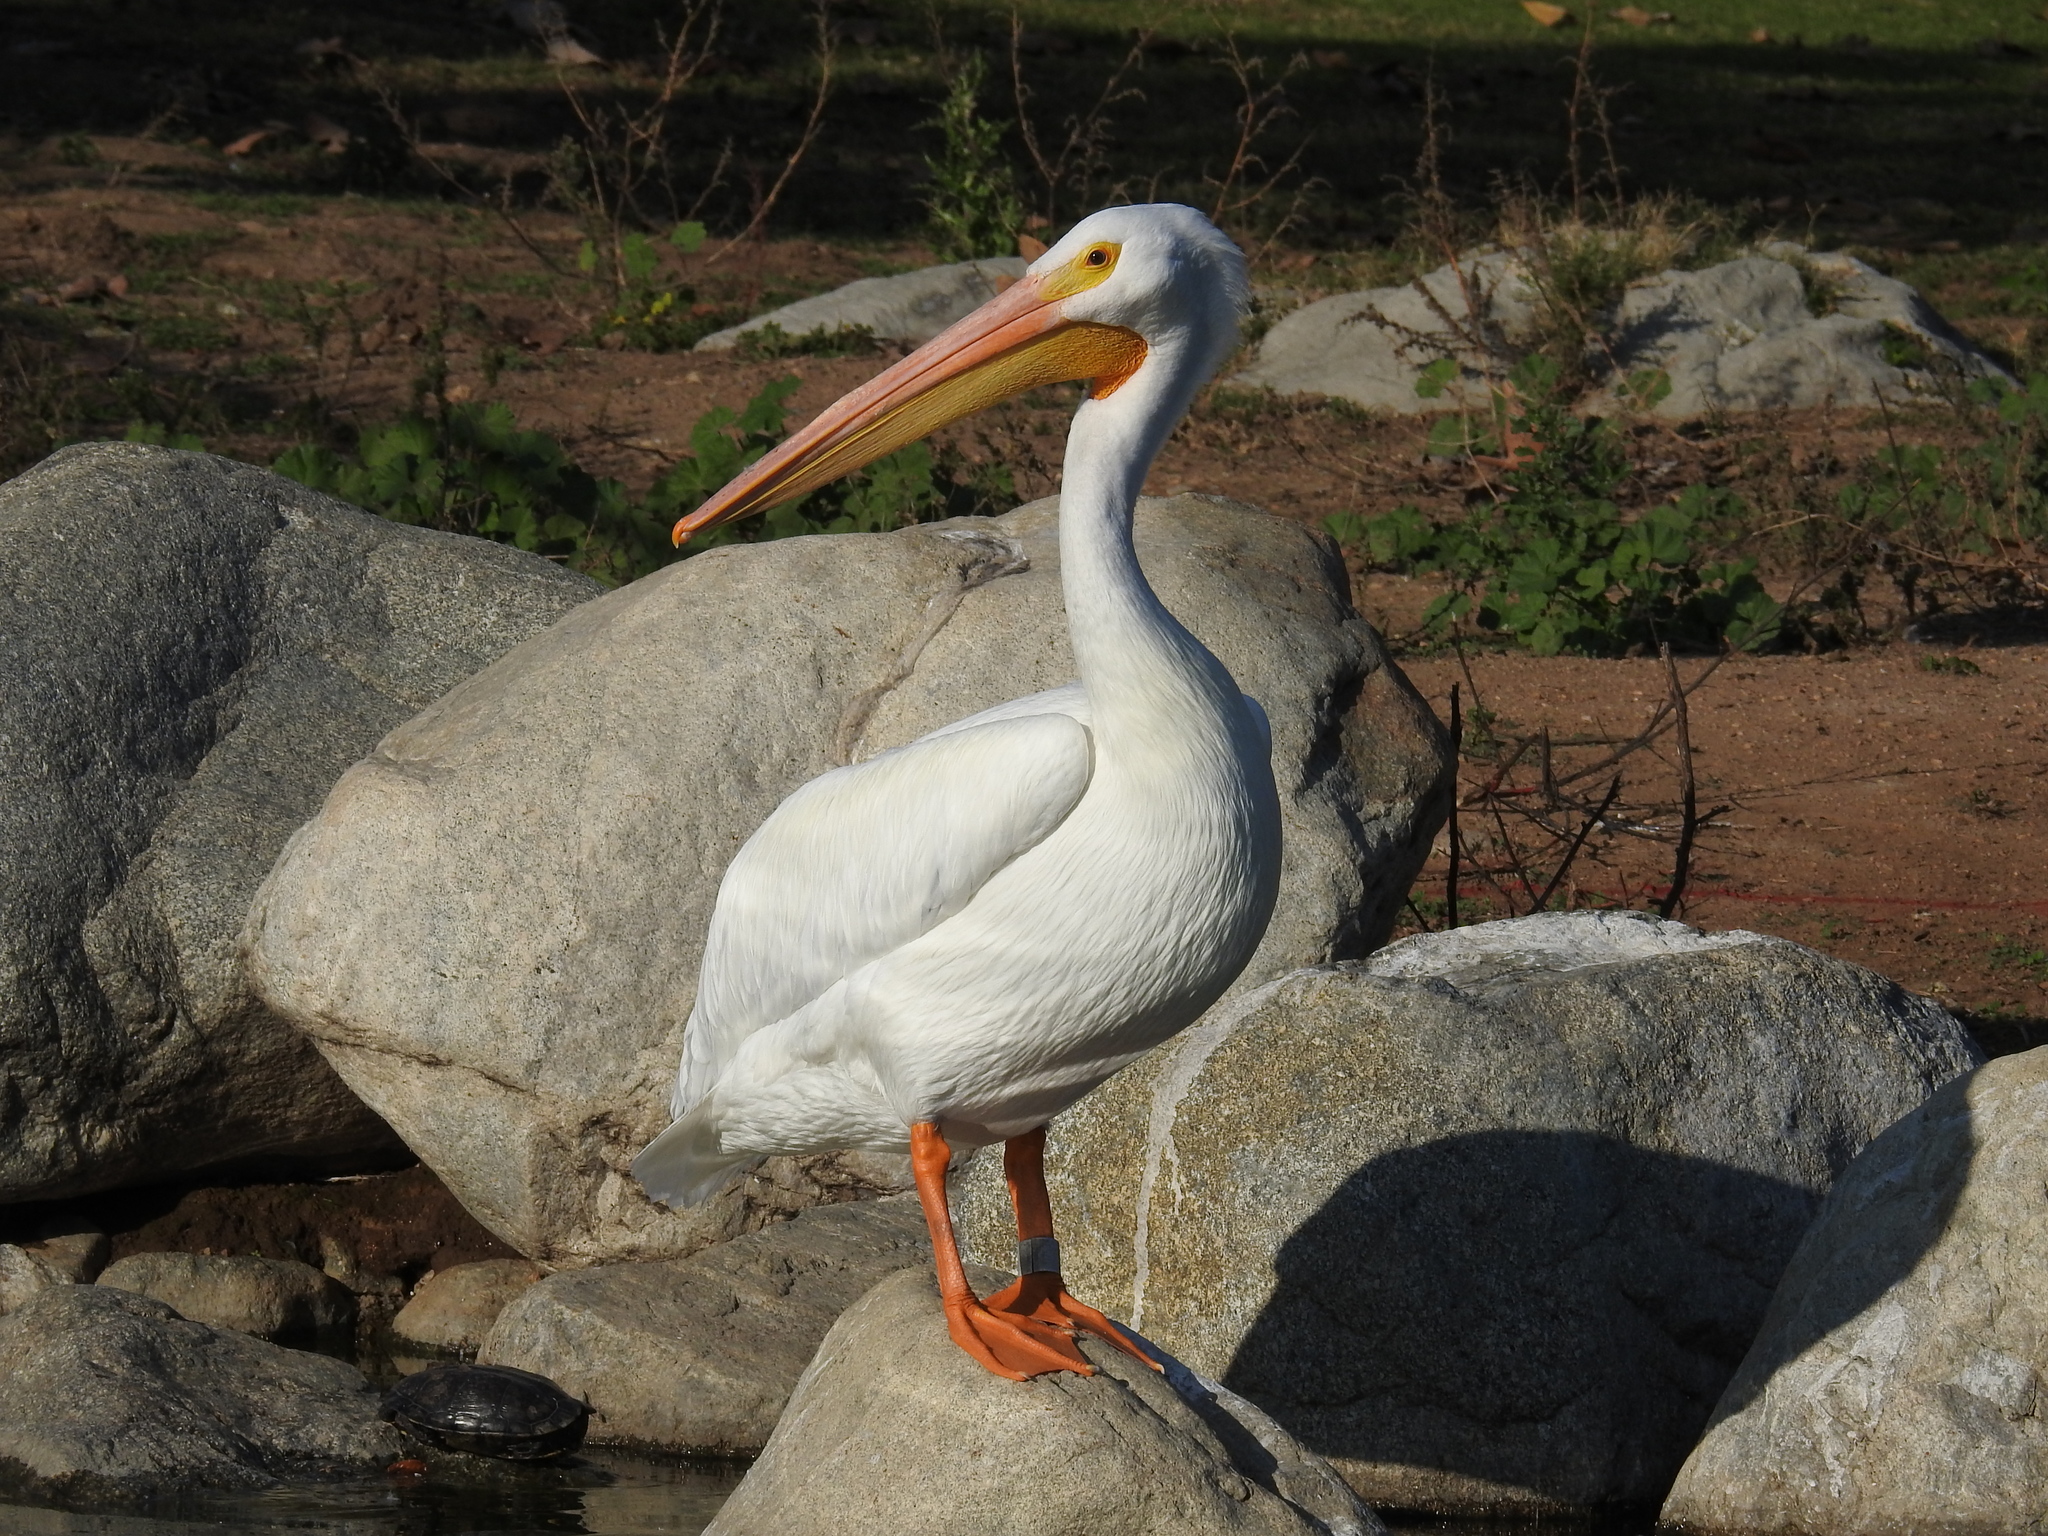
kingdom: Animalia
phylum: Chordata
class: Aves
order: Pelecaniformes
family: Pelecanidae
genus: Pelecanus
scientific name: Pelecanus erythrorhynchos
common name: American white pelican
